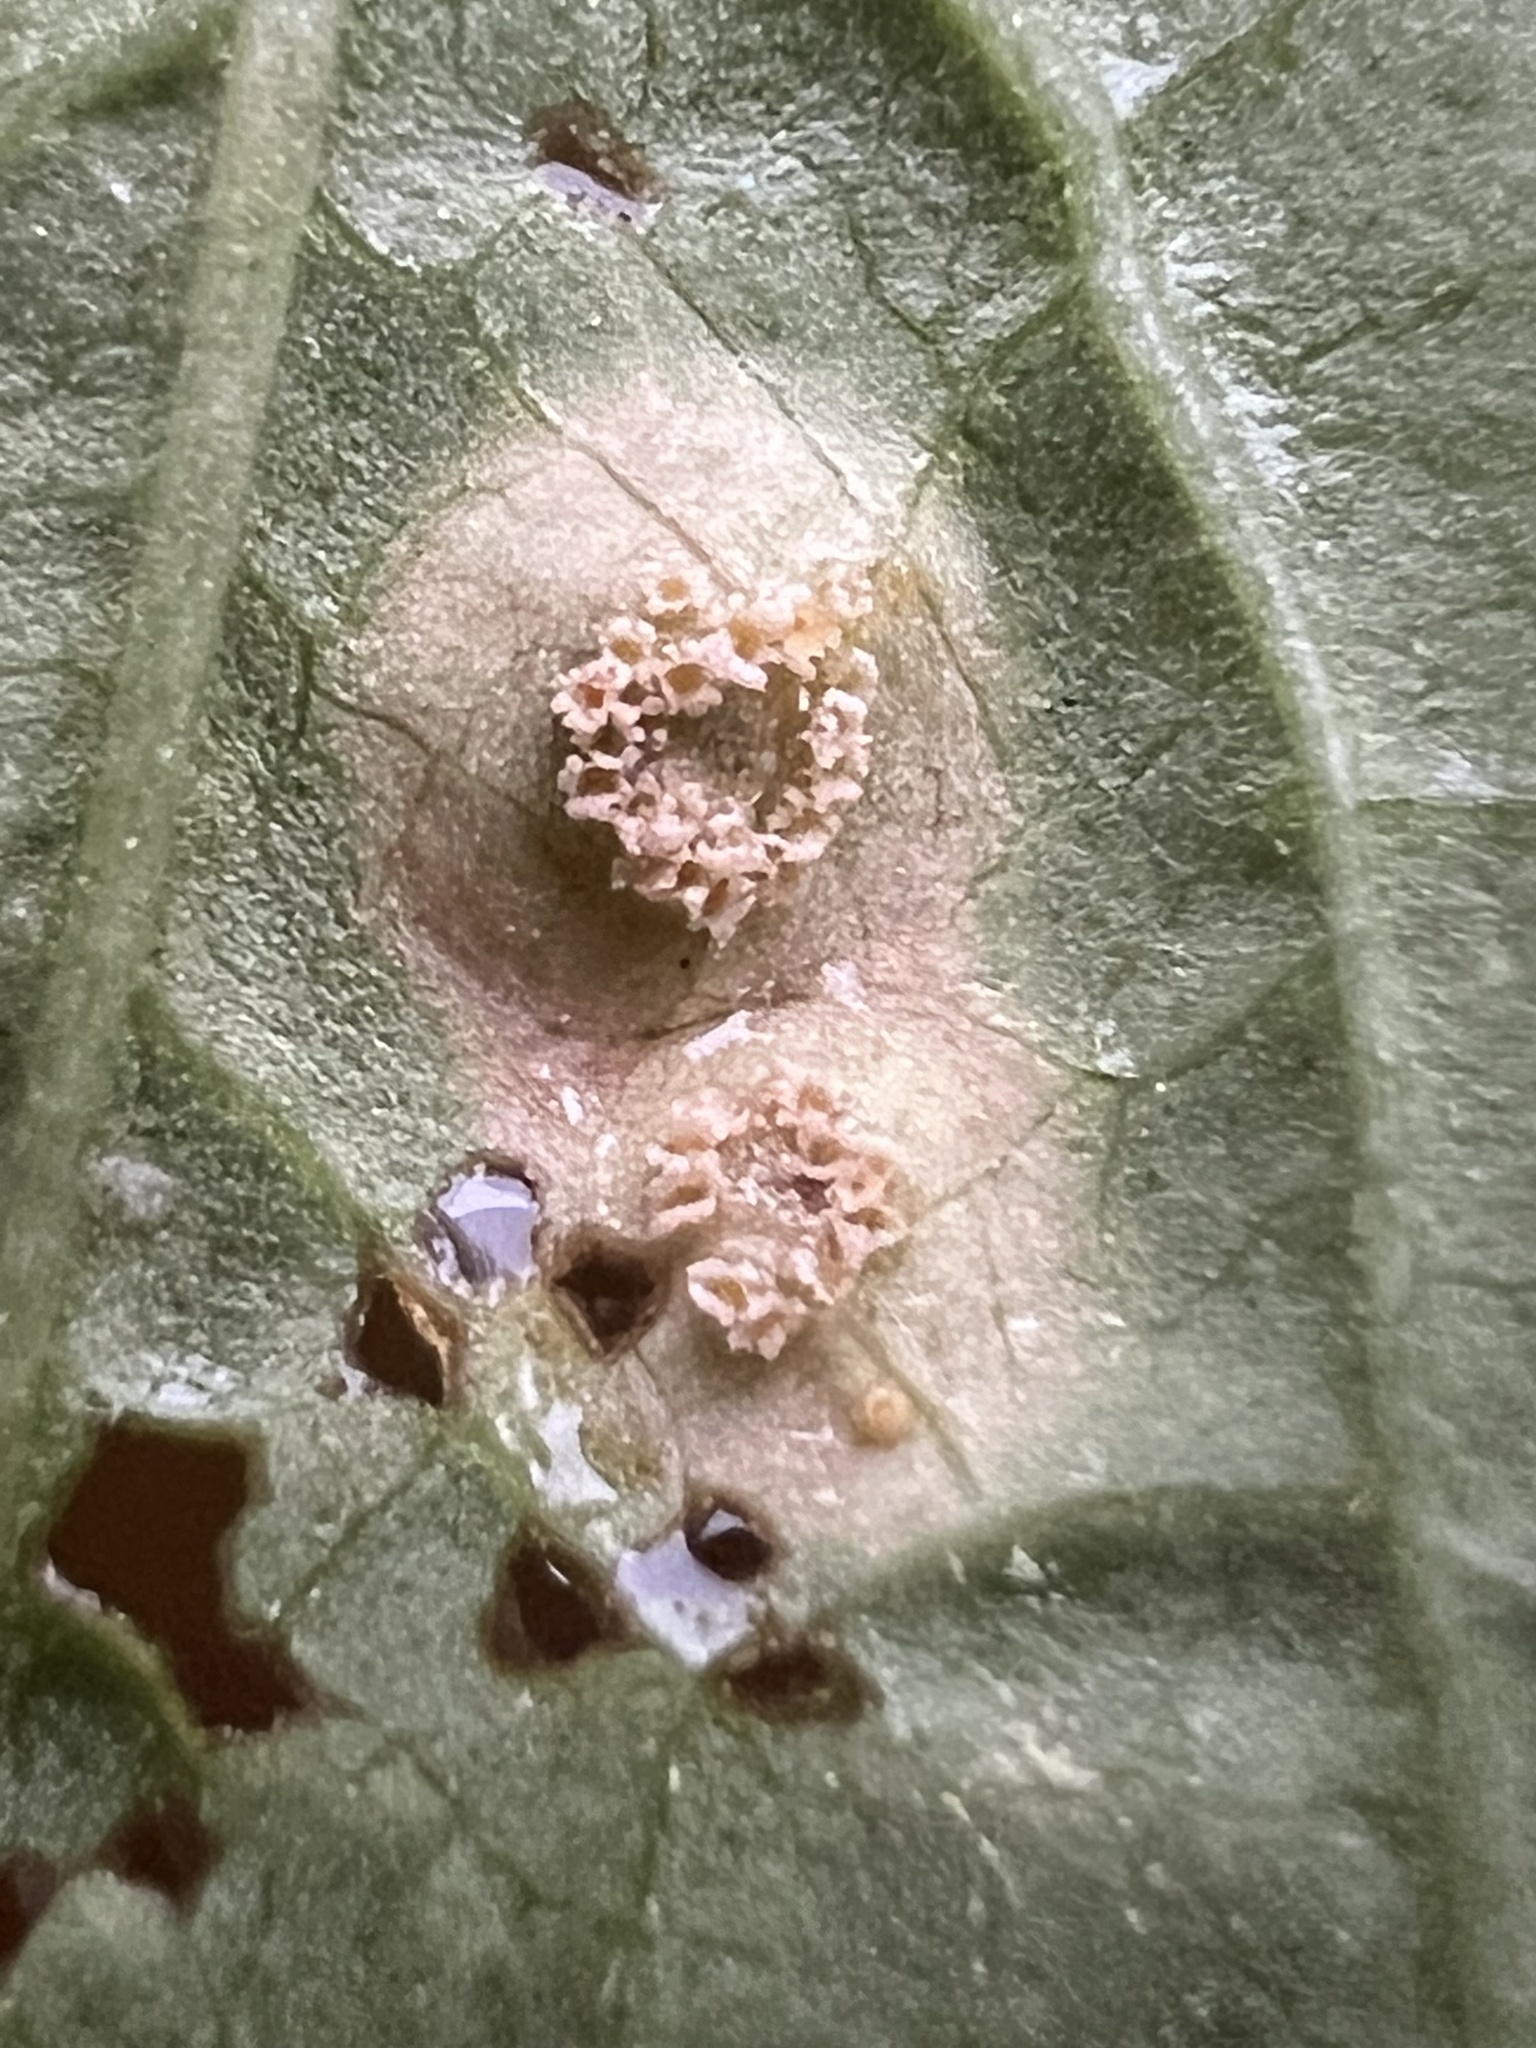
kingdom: Fungi
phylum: Basidiomycota
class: Pucciniomycetes
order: Pucciniales
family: Pucciniaceae
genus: Puccinia
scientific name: Puccinia convolvuli
